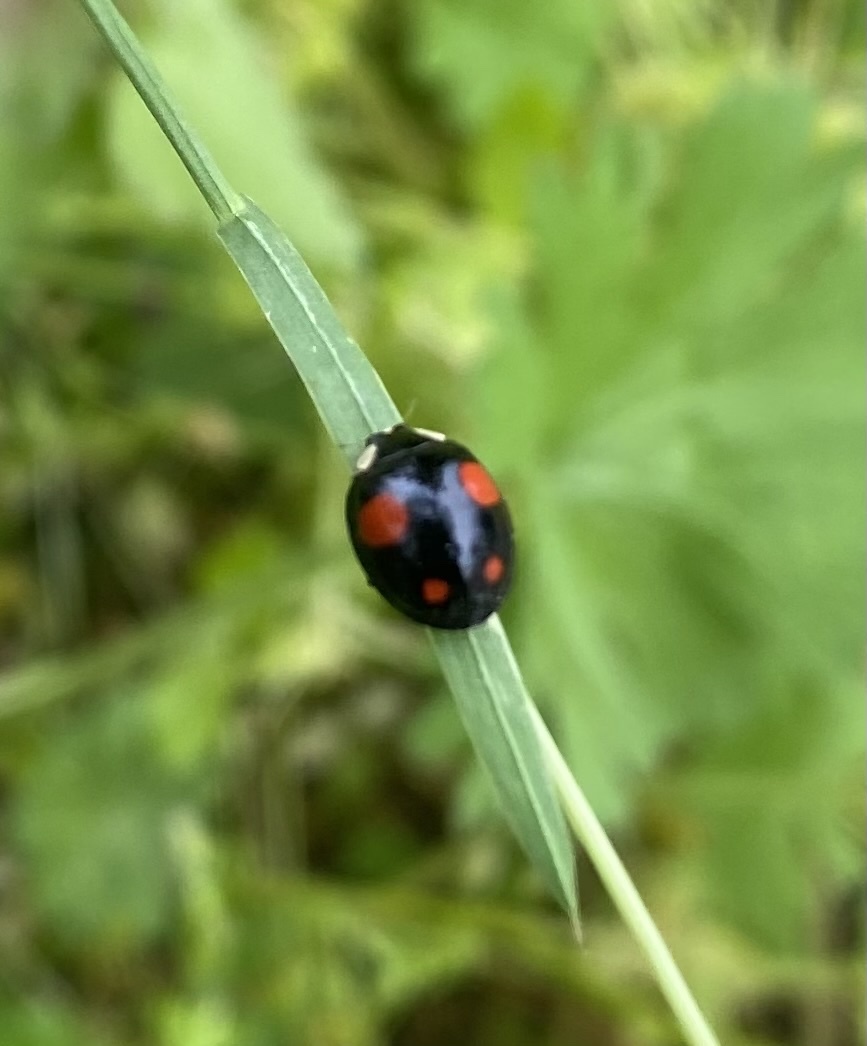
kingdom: Animalia
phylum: Arthropoda
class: Insecta
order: Coleoptera
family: Coccinellidae
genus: Harmonia
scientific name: Harmonia axyridis
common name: Harlequin ladybird
